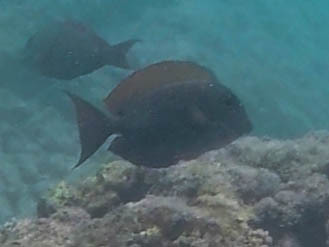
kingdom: Animalia
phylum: Chordata
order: Perciformes
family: Acanthuridae
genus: Acanthurus
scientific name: Acanthurus nigrofuscus
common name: Blackspot surgeonfish
